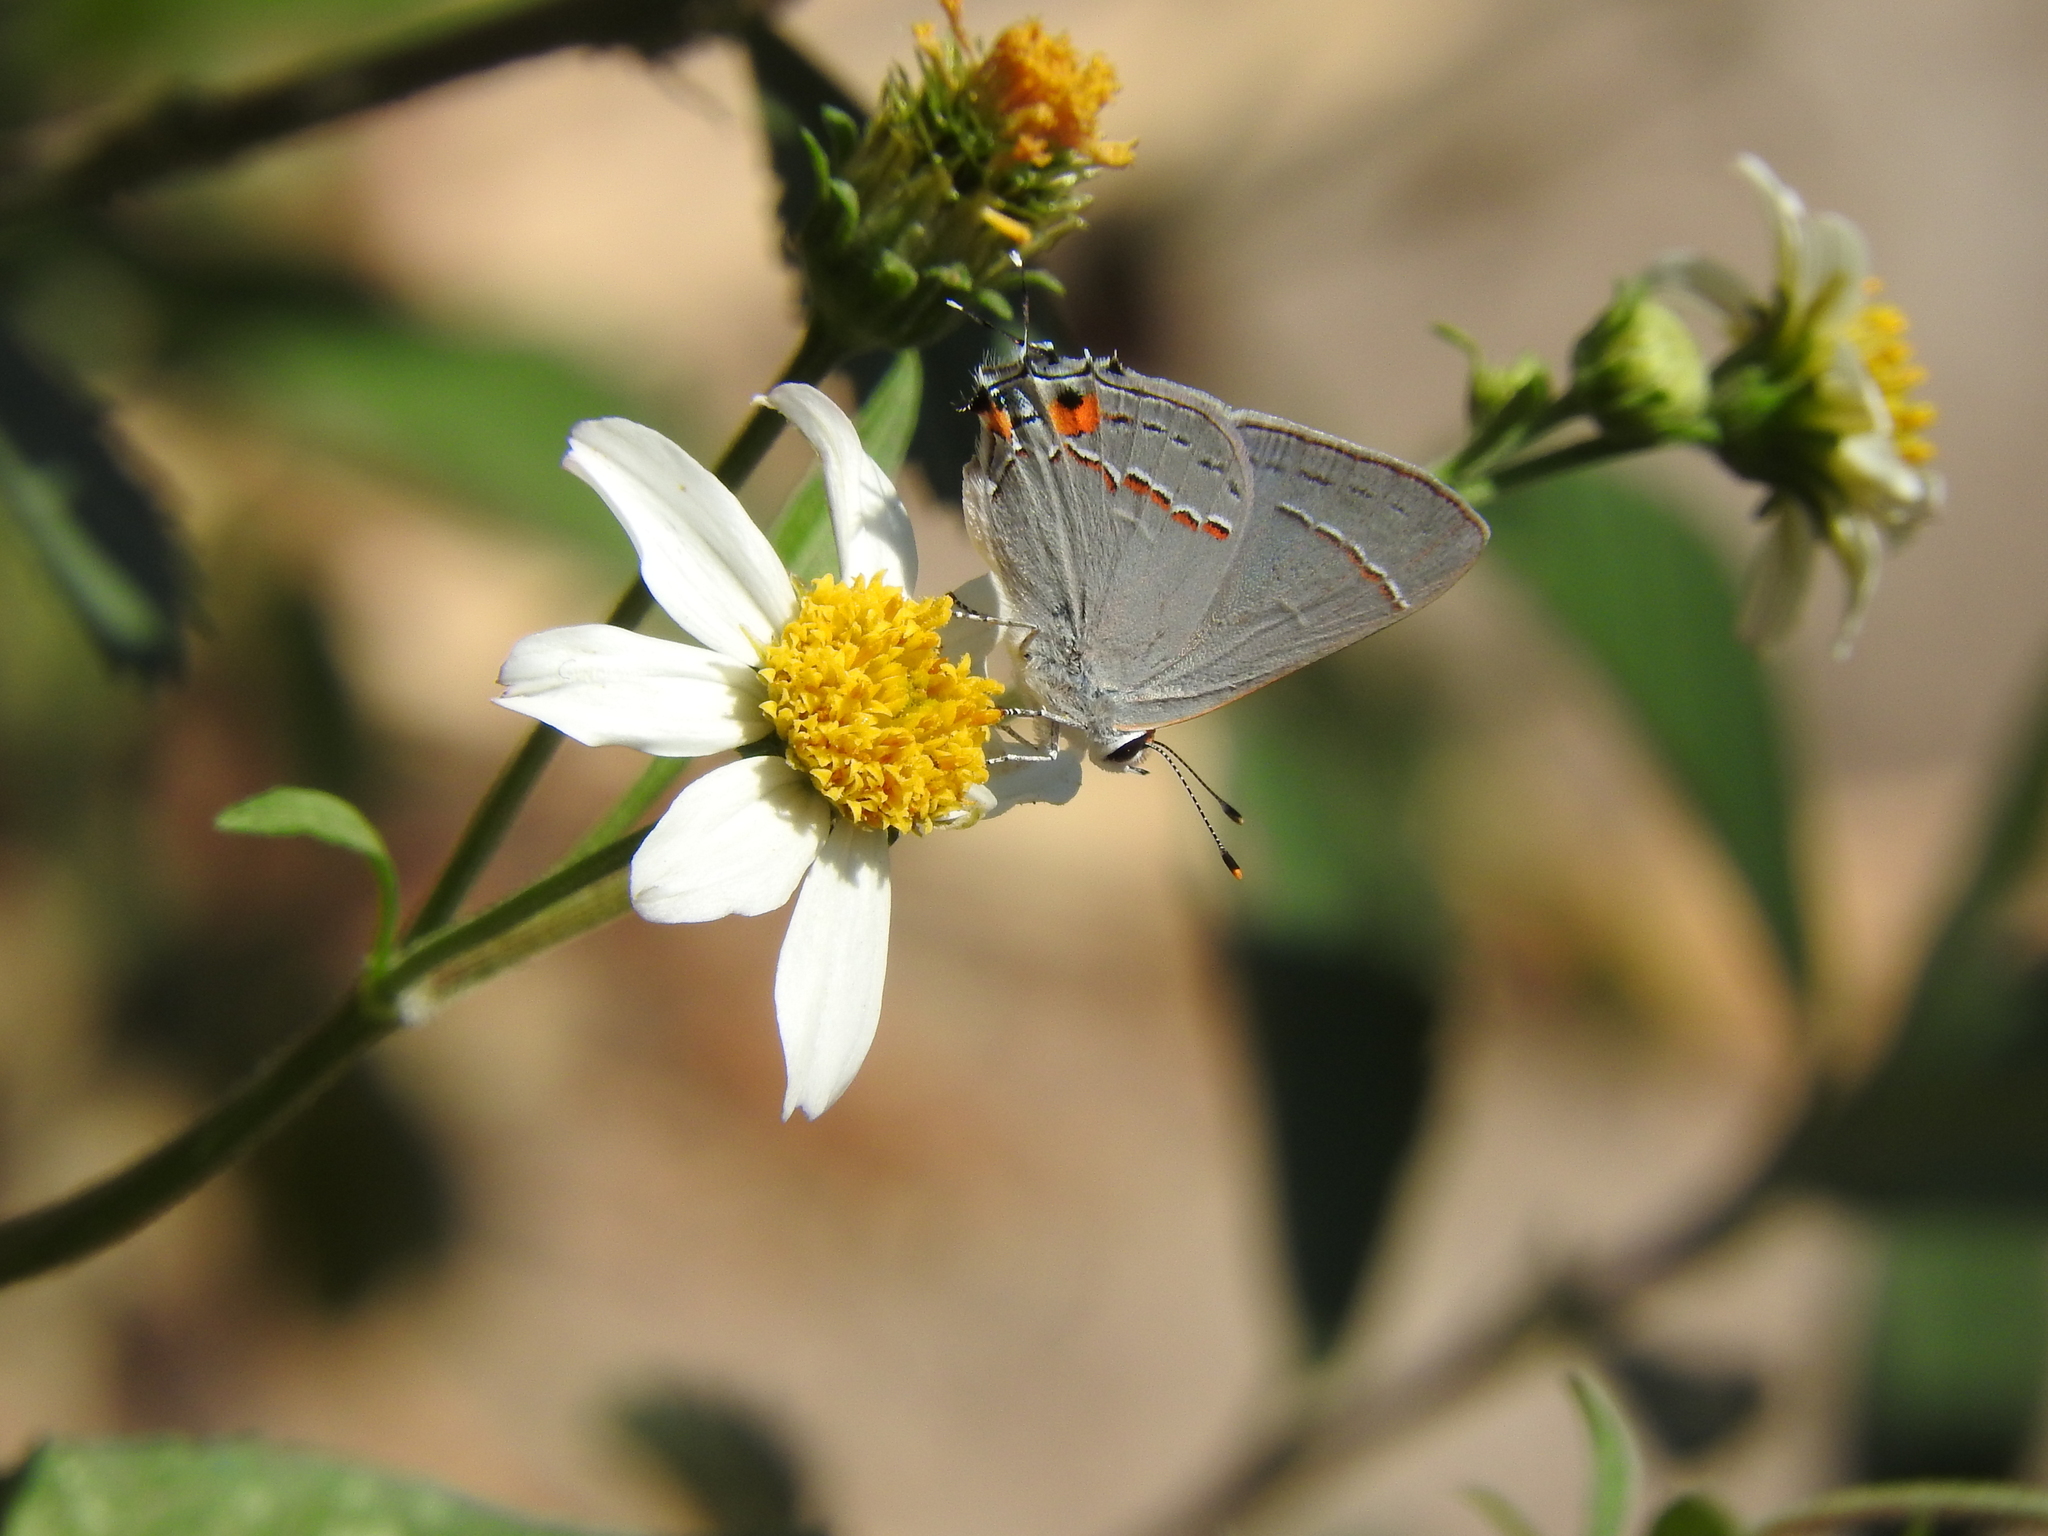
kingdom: Animalia
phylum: Arthropoda
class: Insecta
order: Lepidoptera
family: Lycaenidae
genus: Strymon
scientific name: Strymon melinus
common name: Gray hairstreak
